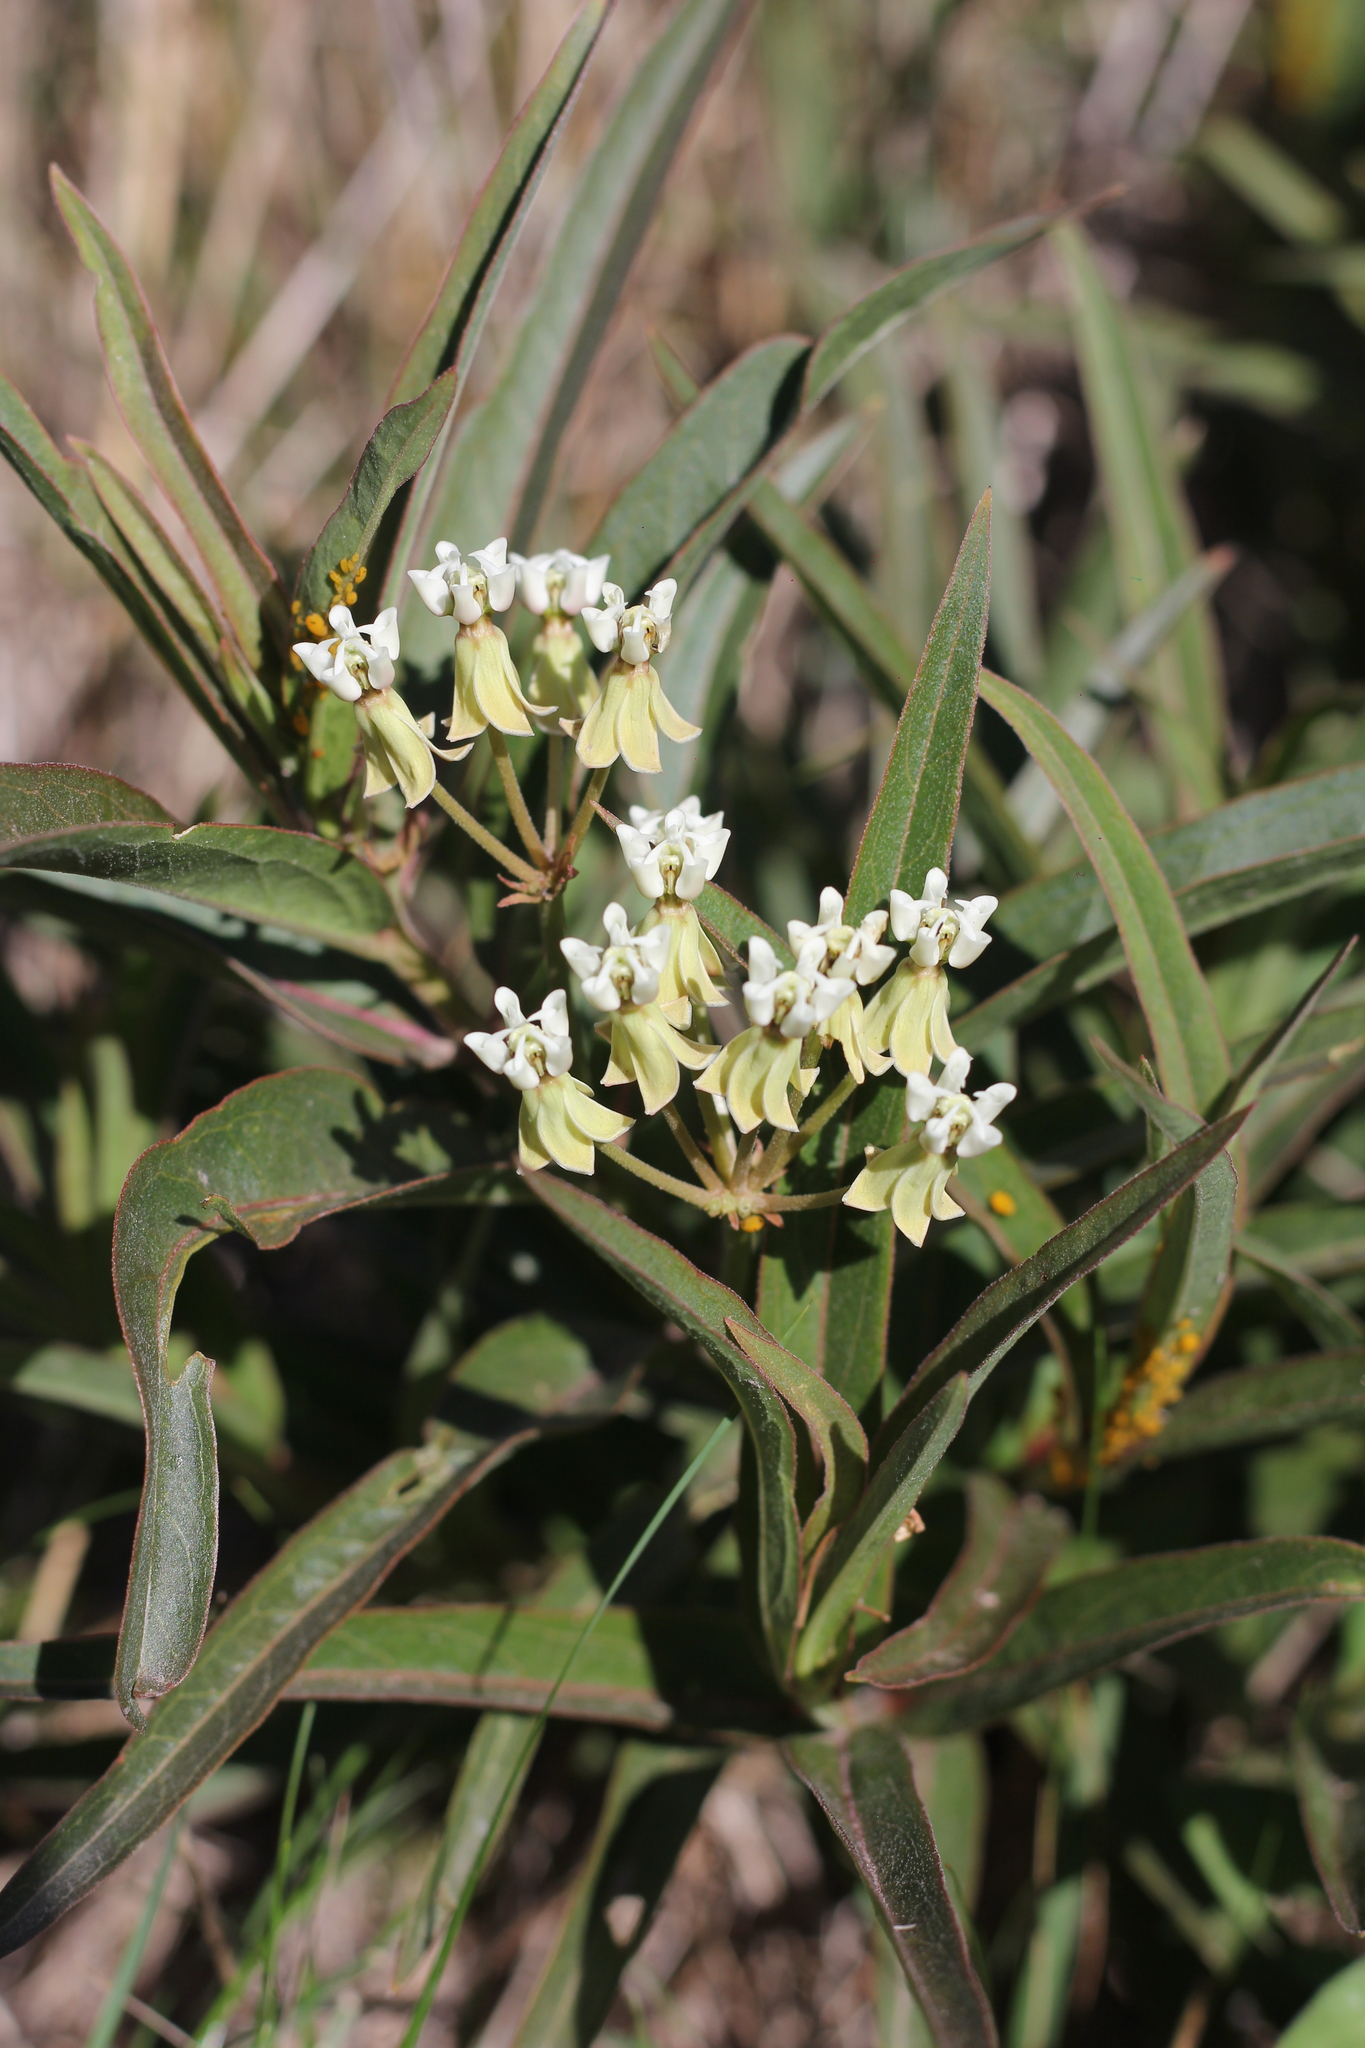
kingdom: Animalia
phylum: Arthropoda
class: Insecta
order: Coleoptera
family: Cantharidae
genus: Chauliognathus
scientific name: Chauliognathus
